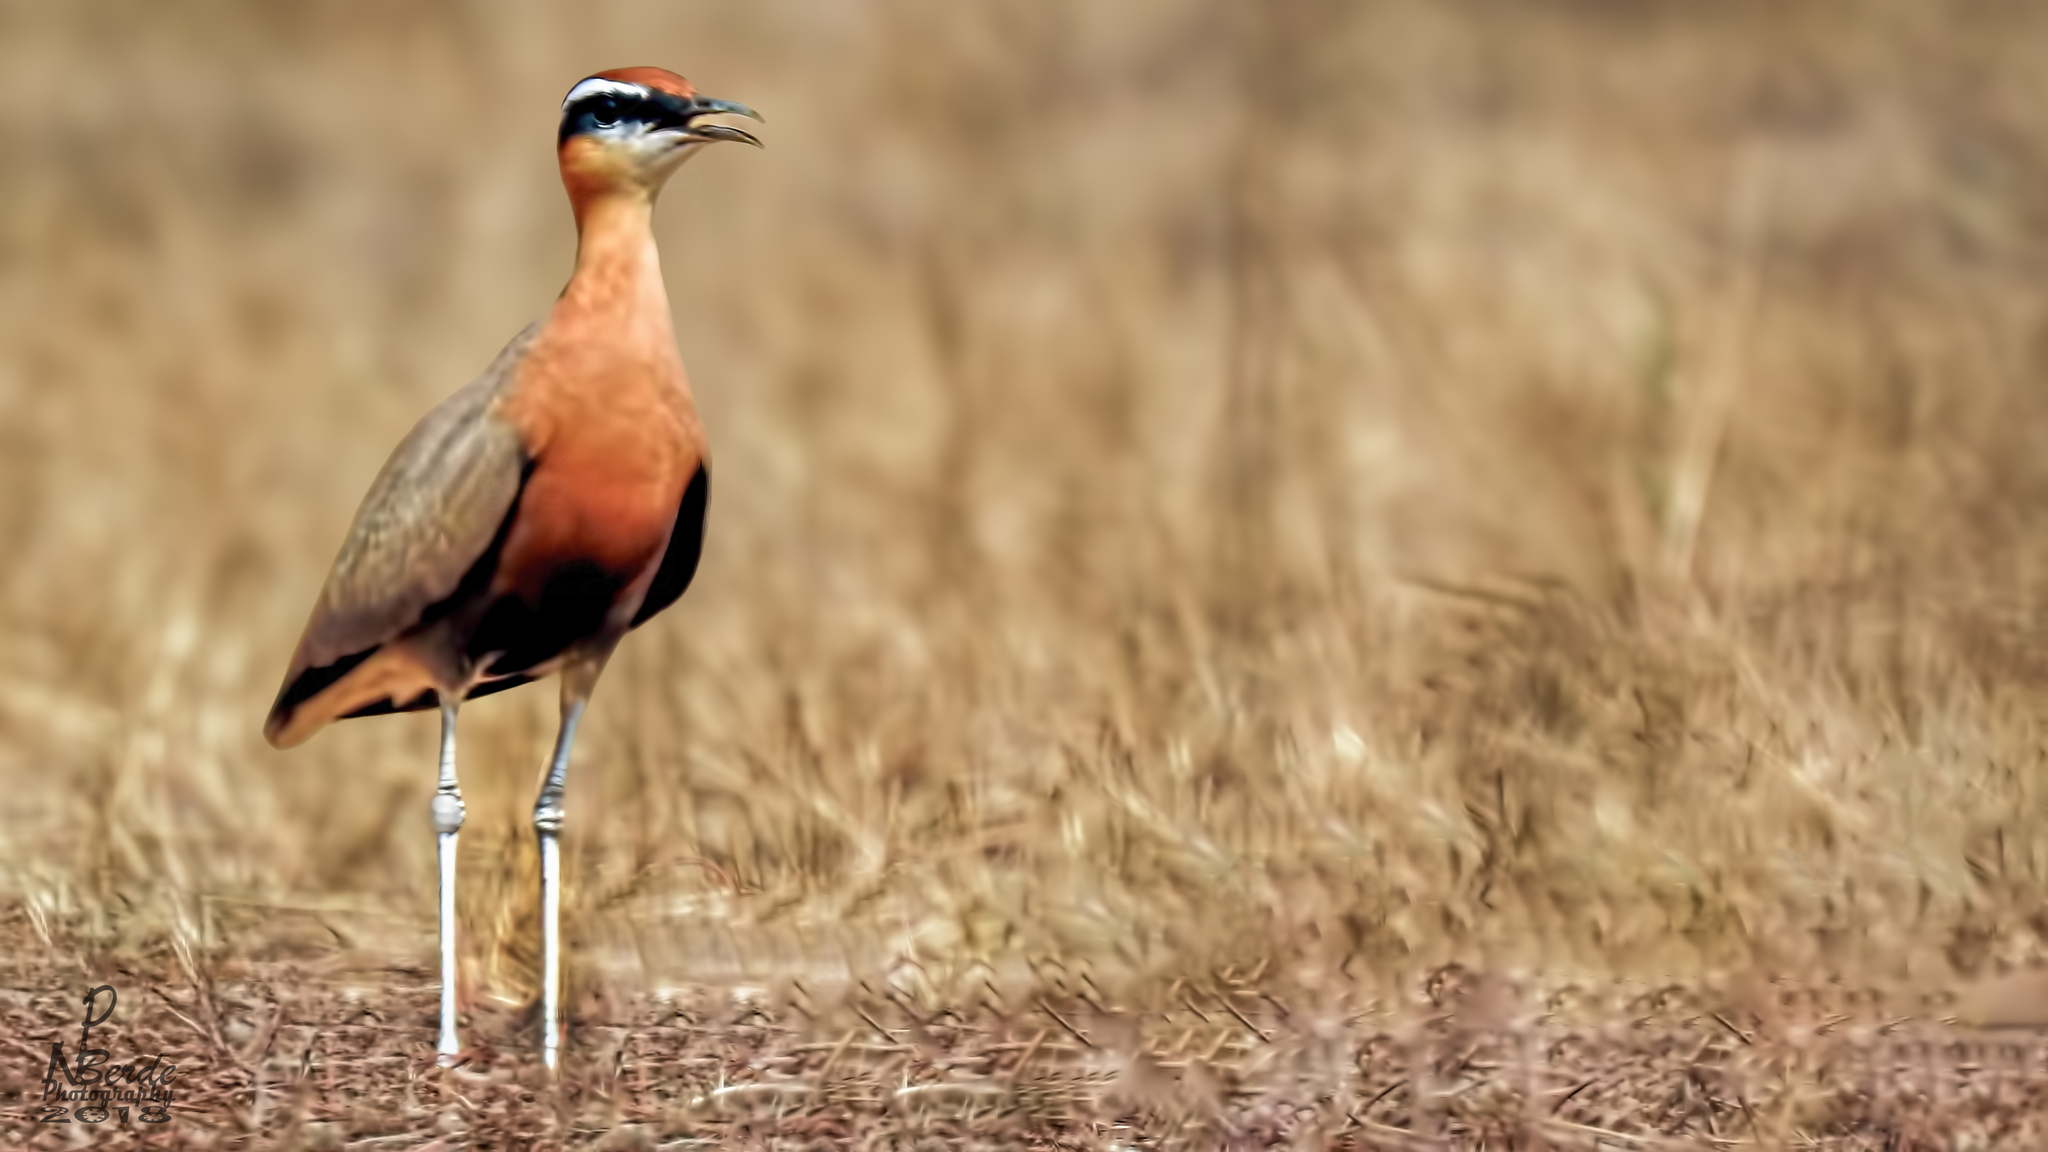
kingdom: Animalia
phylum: Chordata
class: Aves
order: Charadriiformes
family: Glareolidae
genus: Cursorius
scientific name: Cursorius coromandelicus
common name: Indian courser
